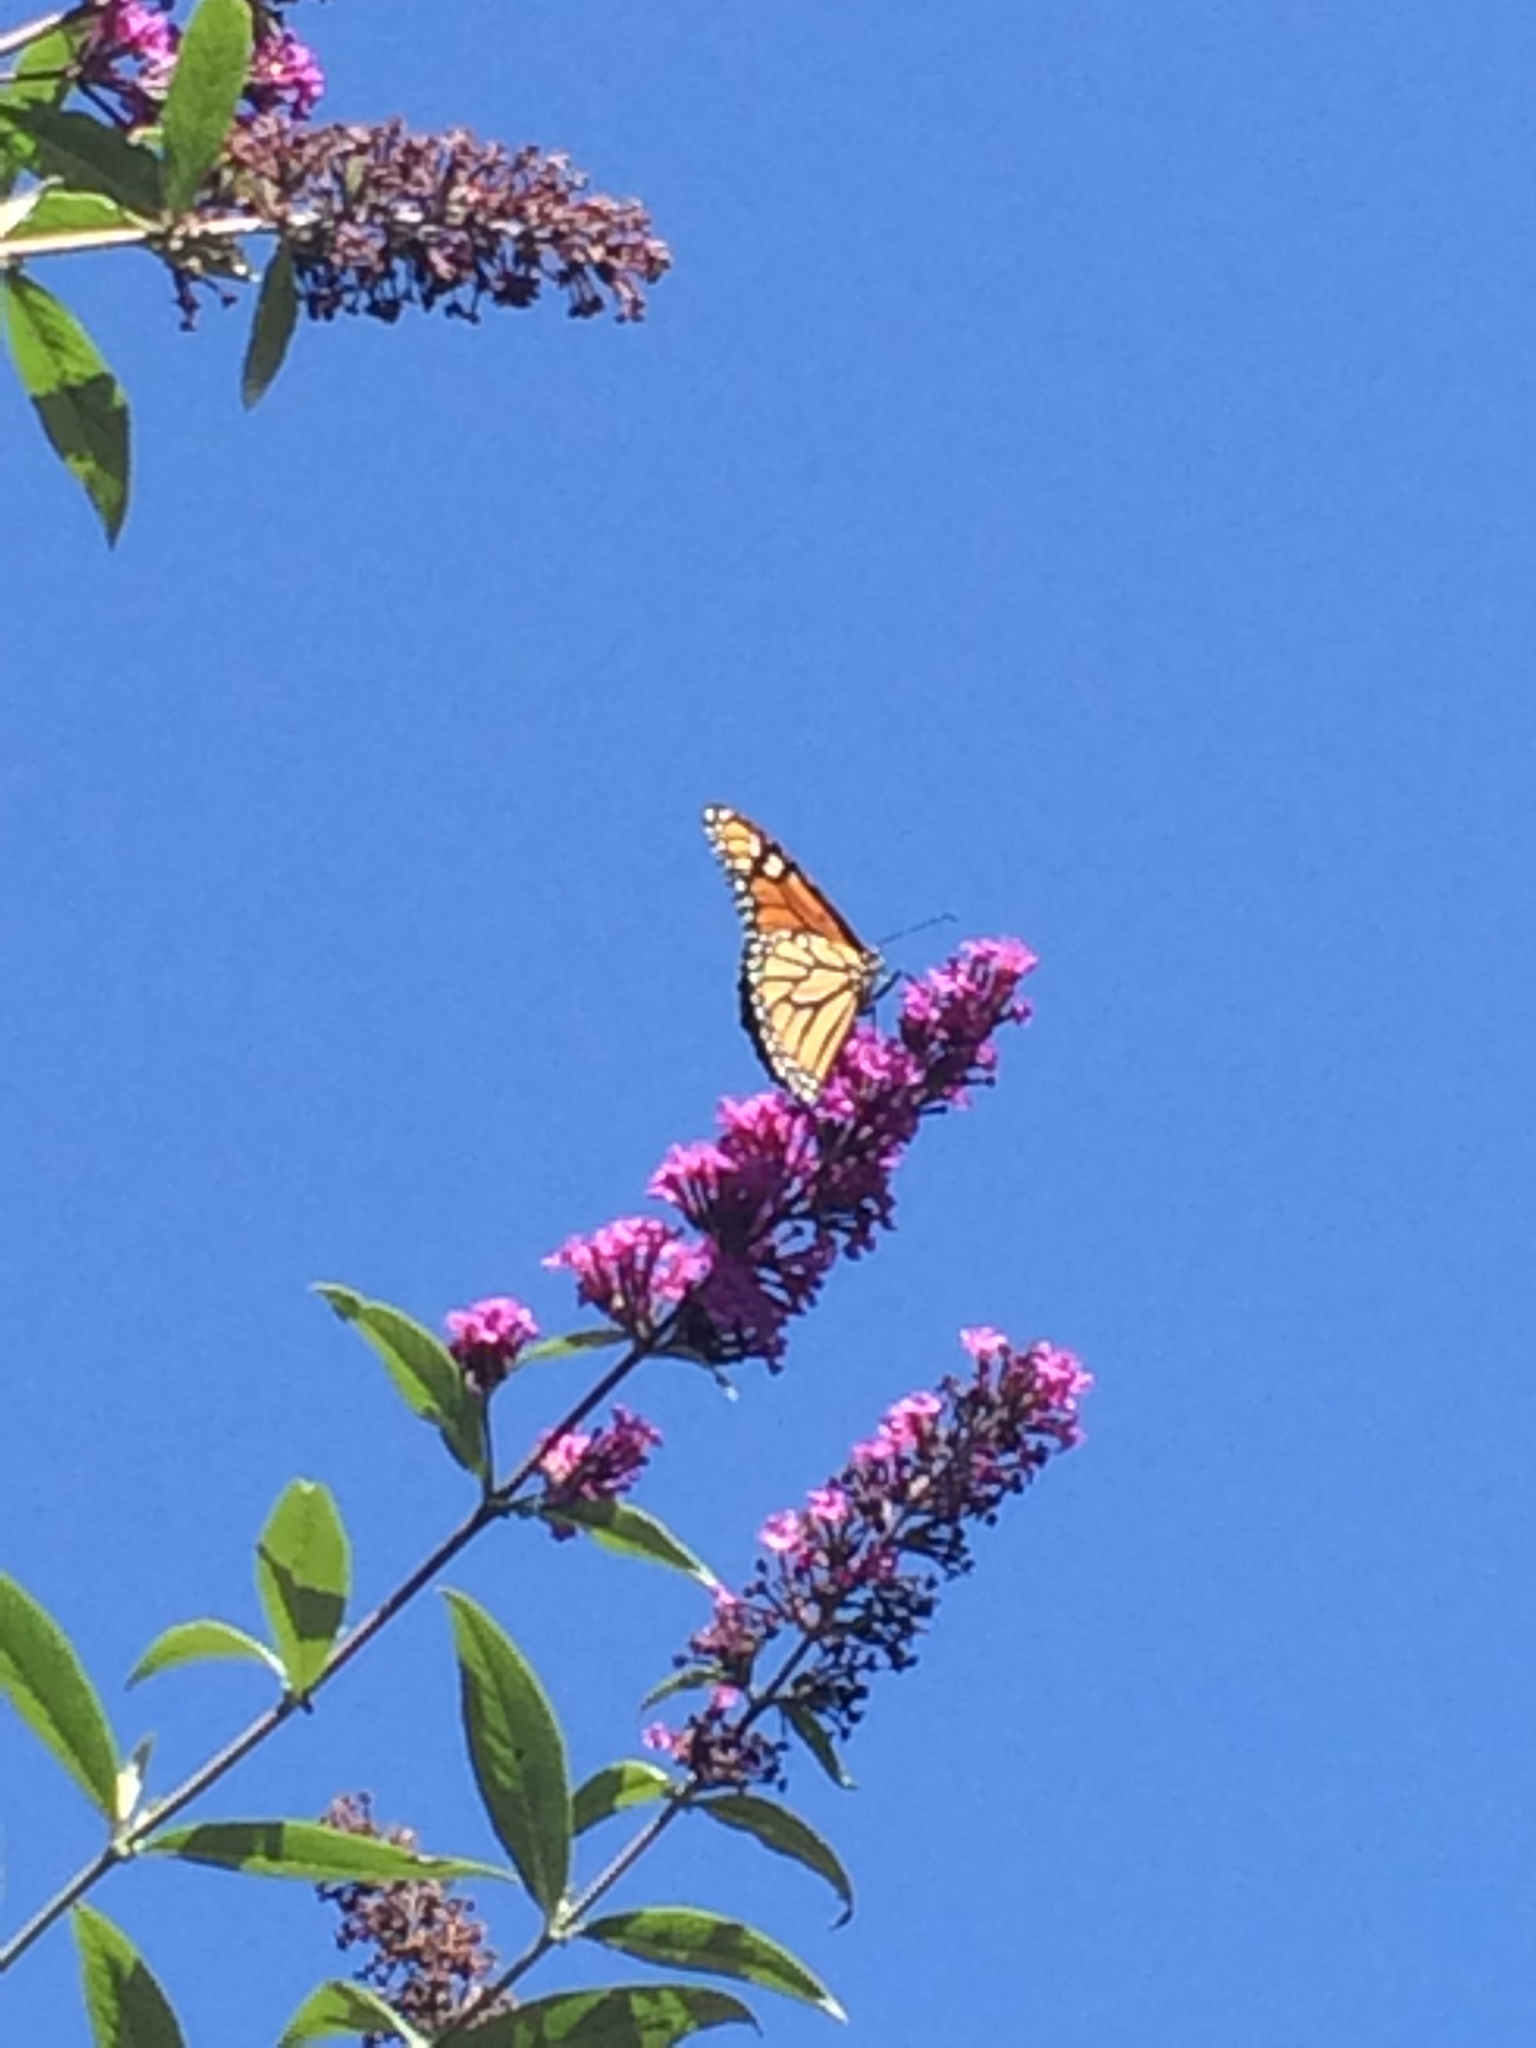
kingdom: Animalia
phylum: Arthropoda
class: Insecta
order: Lepidoptera
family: Nymphalidae
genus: Danaus
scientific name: Danaus plexippus
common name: Monarch
